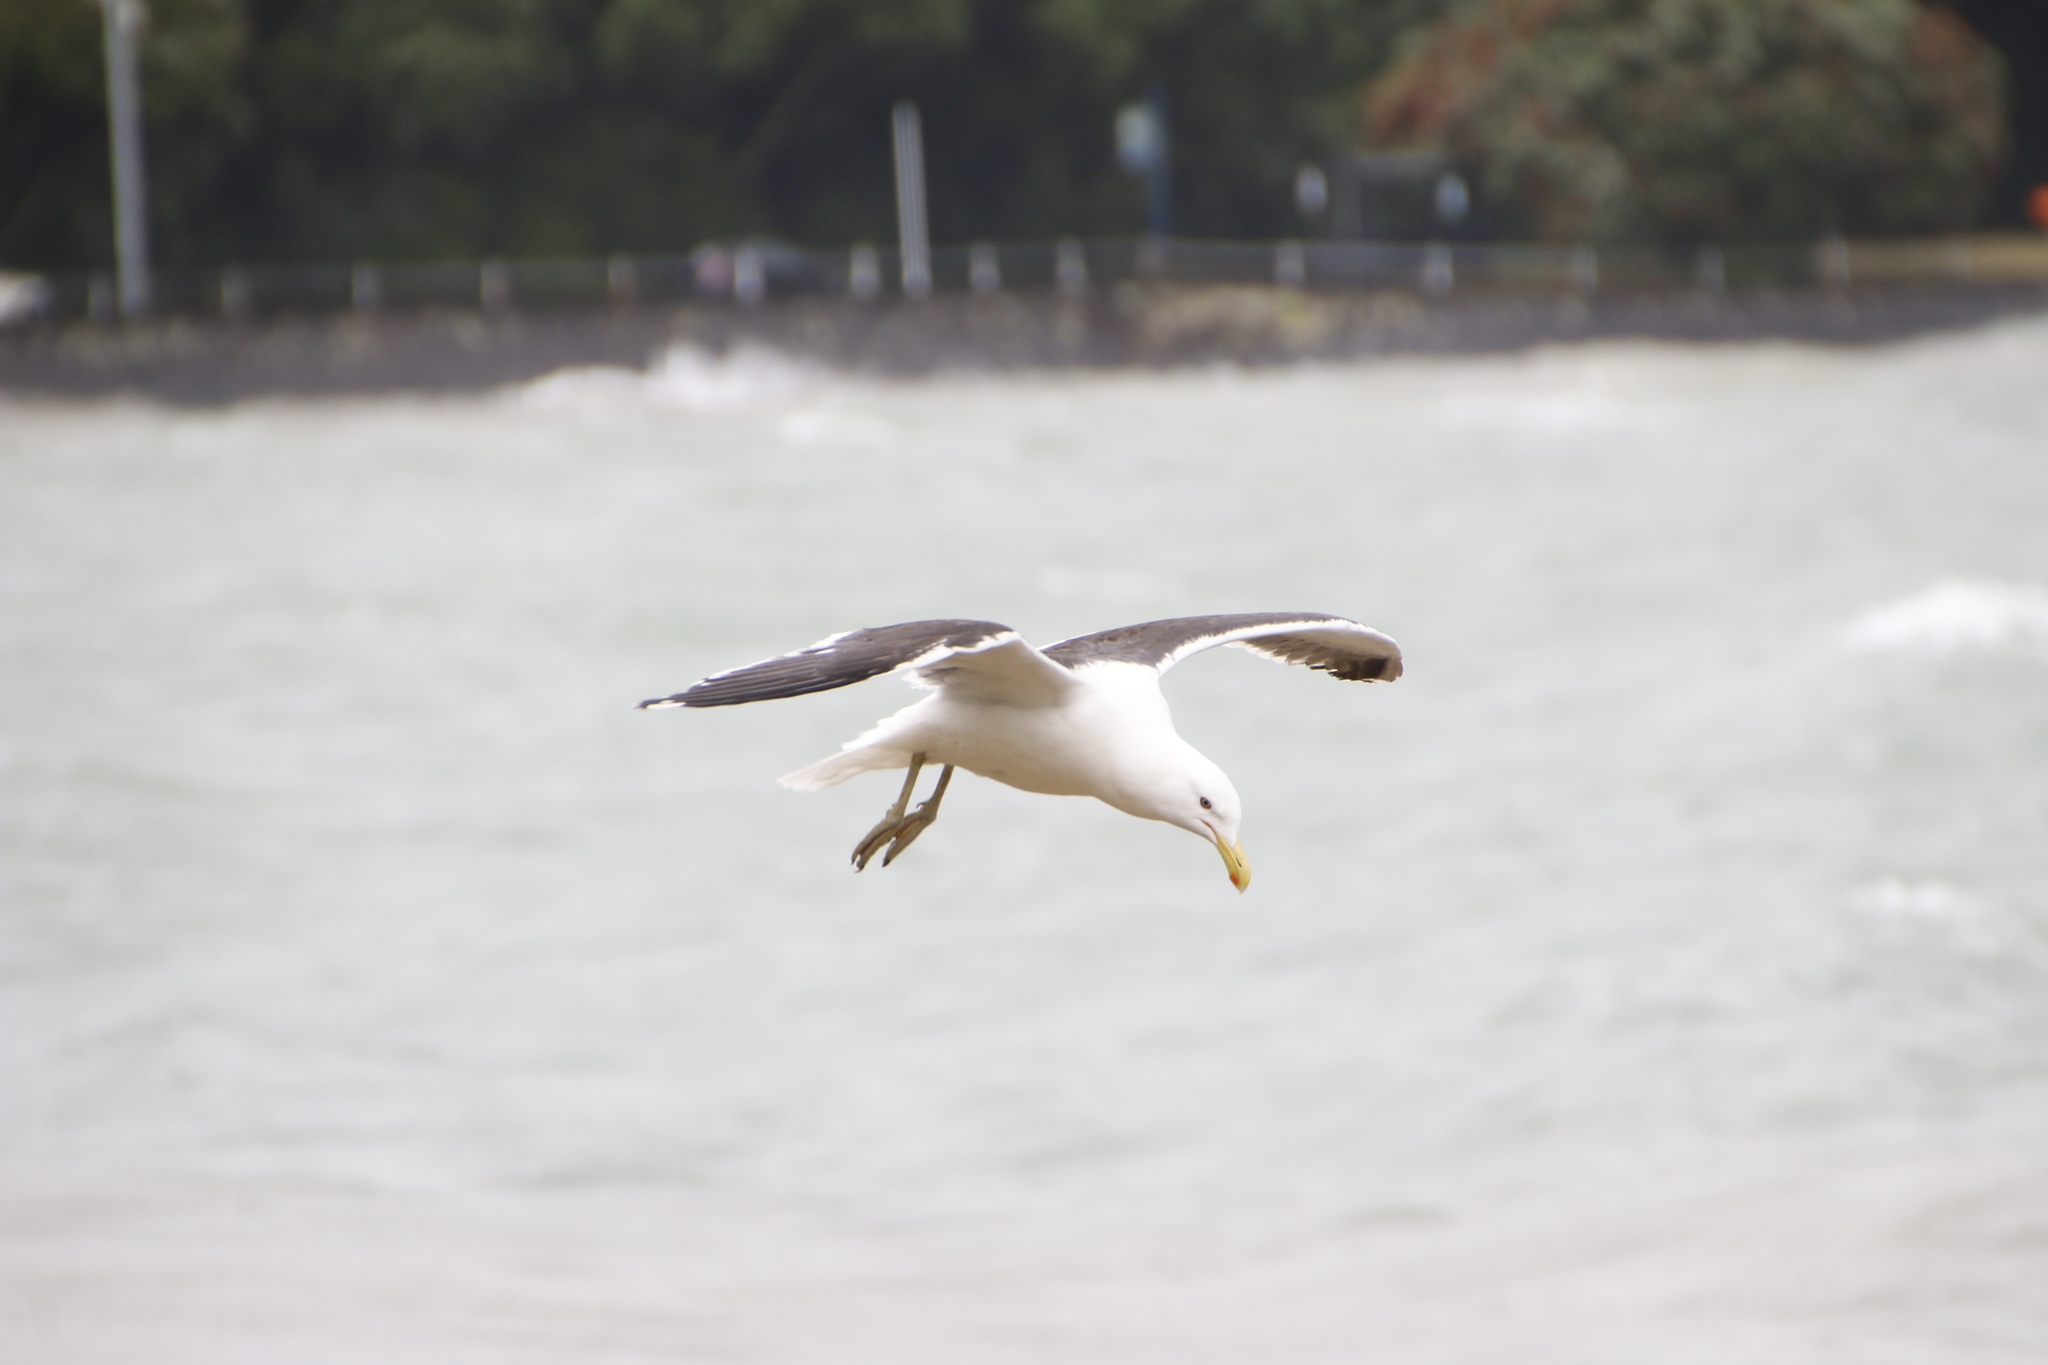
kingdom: Animalia
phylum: Chordata
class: Aves
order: Charadriiformes
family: Laridae
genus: Larus
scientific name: Larus dominicanus
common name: Kelp gull
